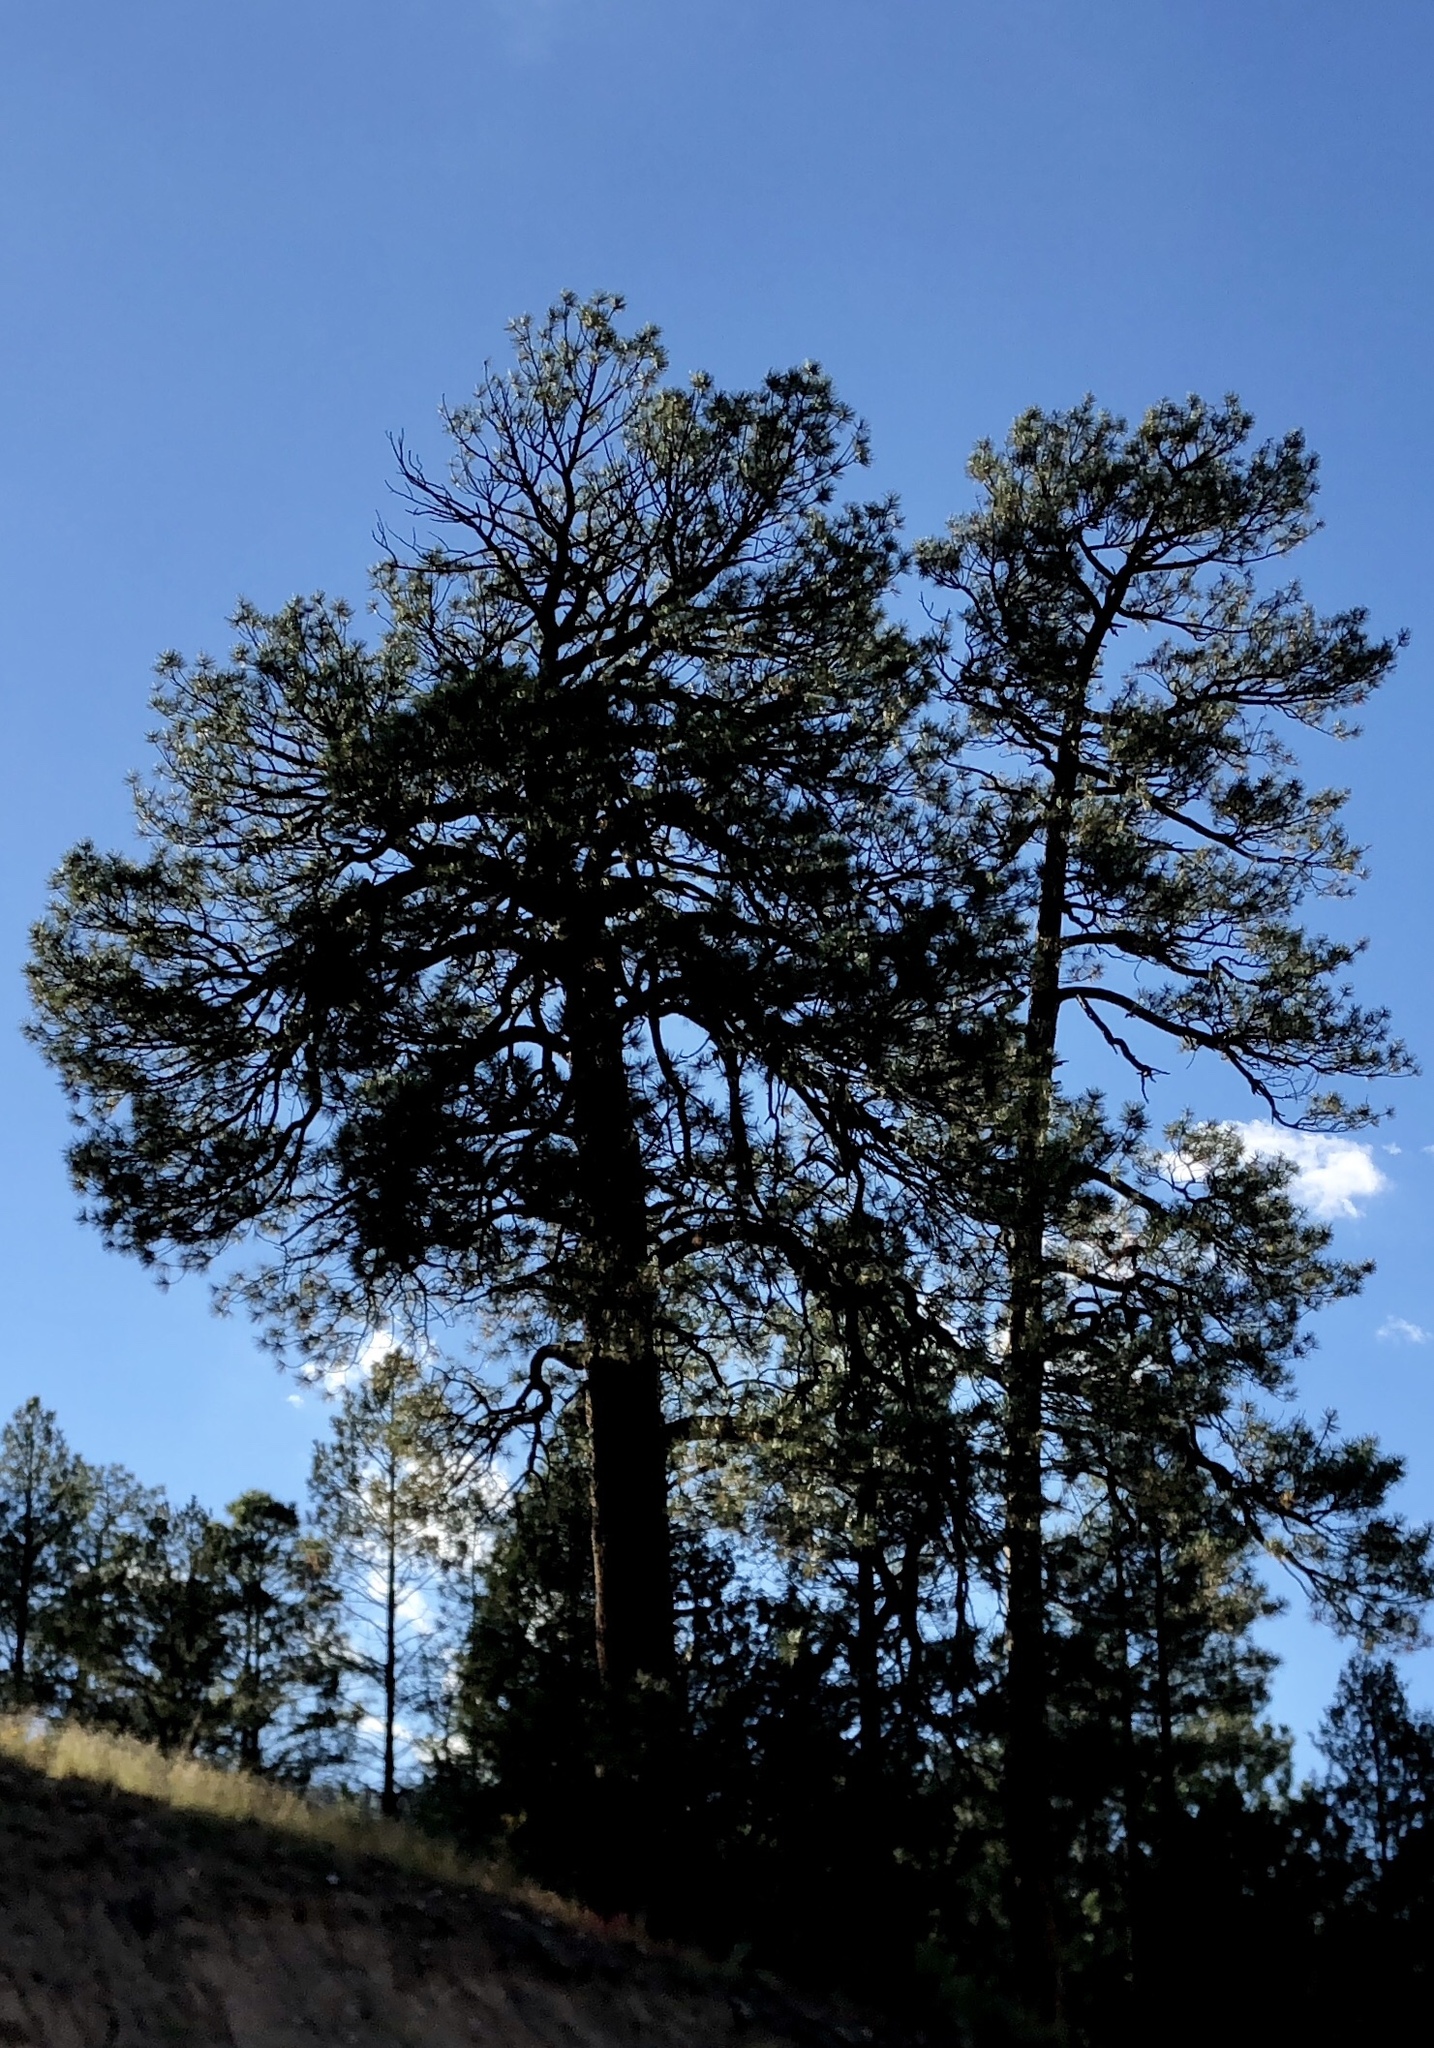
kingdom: Plantae
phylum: Tracheophyta
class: Pinopsida
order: Pinales
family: Pinaceae
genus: Pinus
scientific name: Pinus ponderosa
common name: Western yellow-pine
